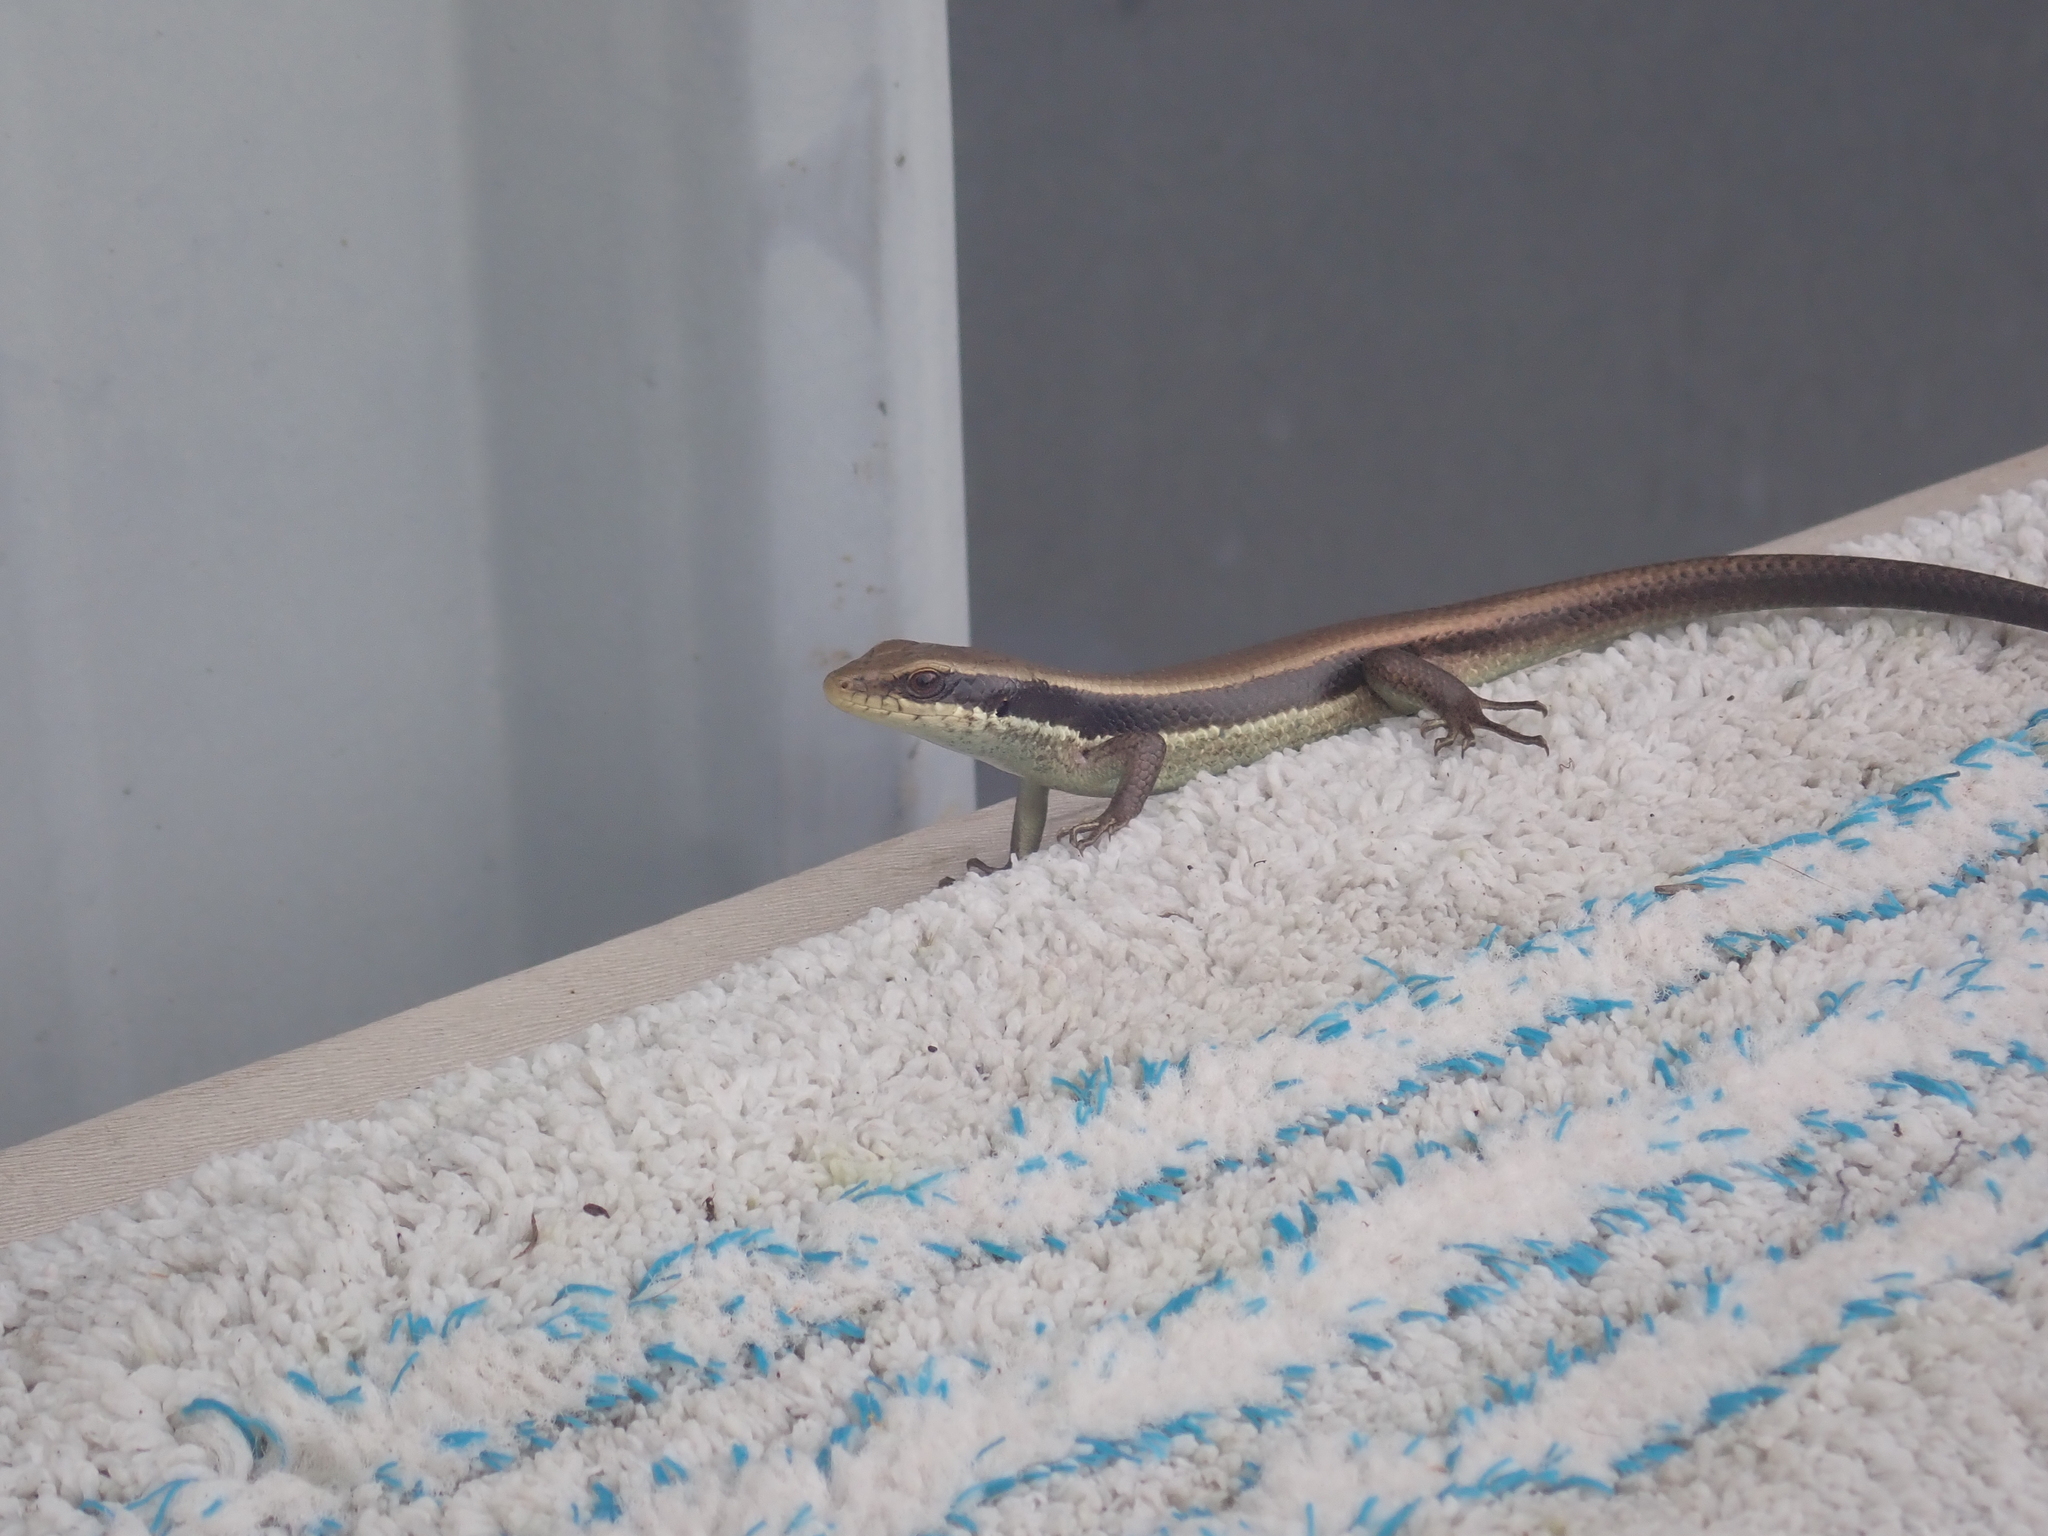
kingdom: Animalia
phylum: Chordata
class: Squamata
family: Scincidae
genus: Eutropis
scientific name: Eutropis longicaudata
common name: Long-tailed sun skink
